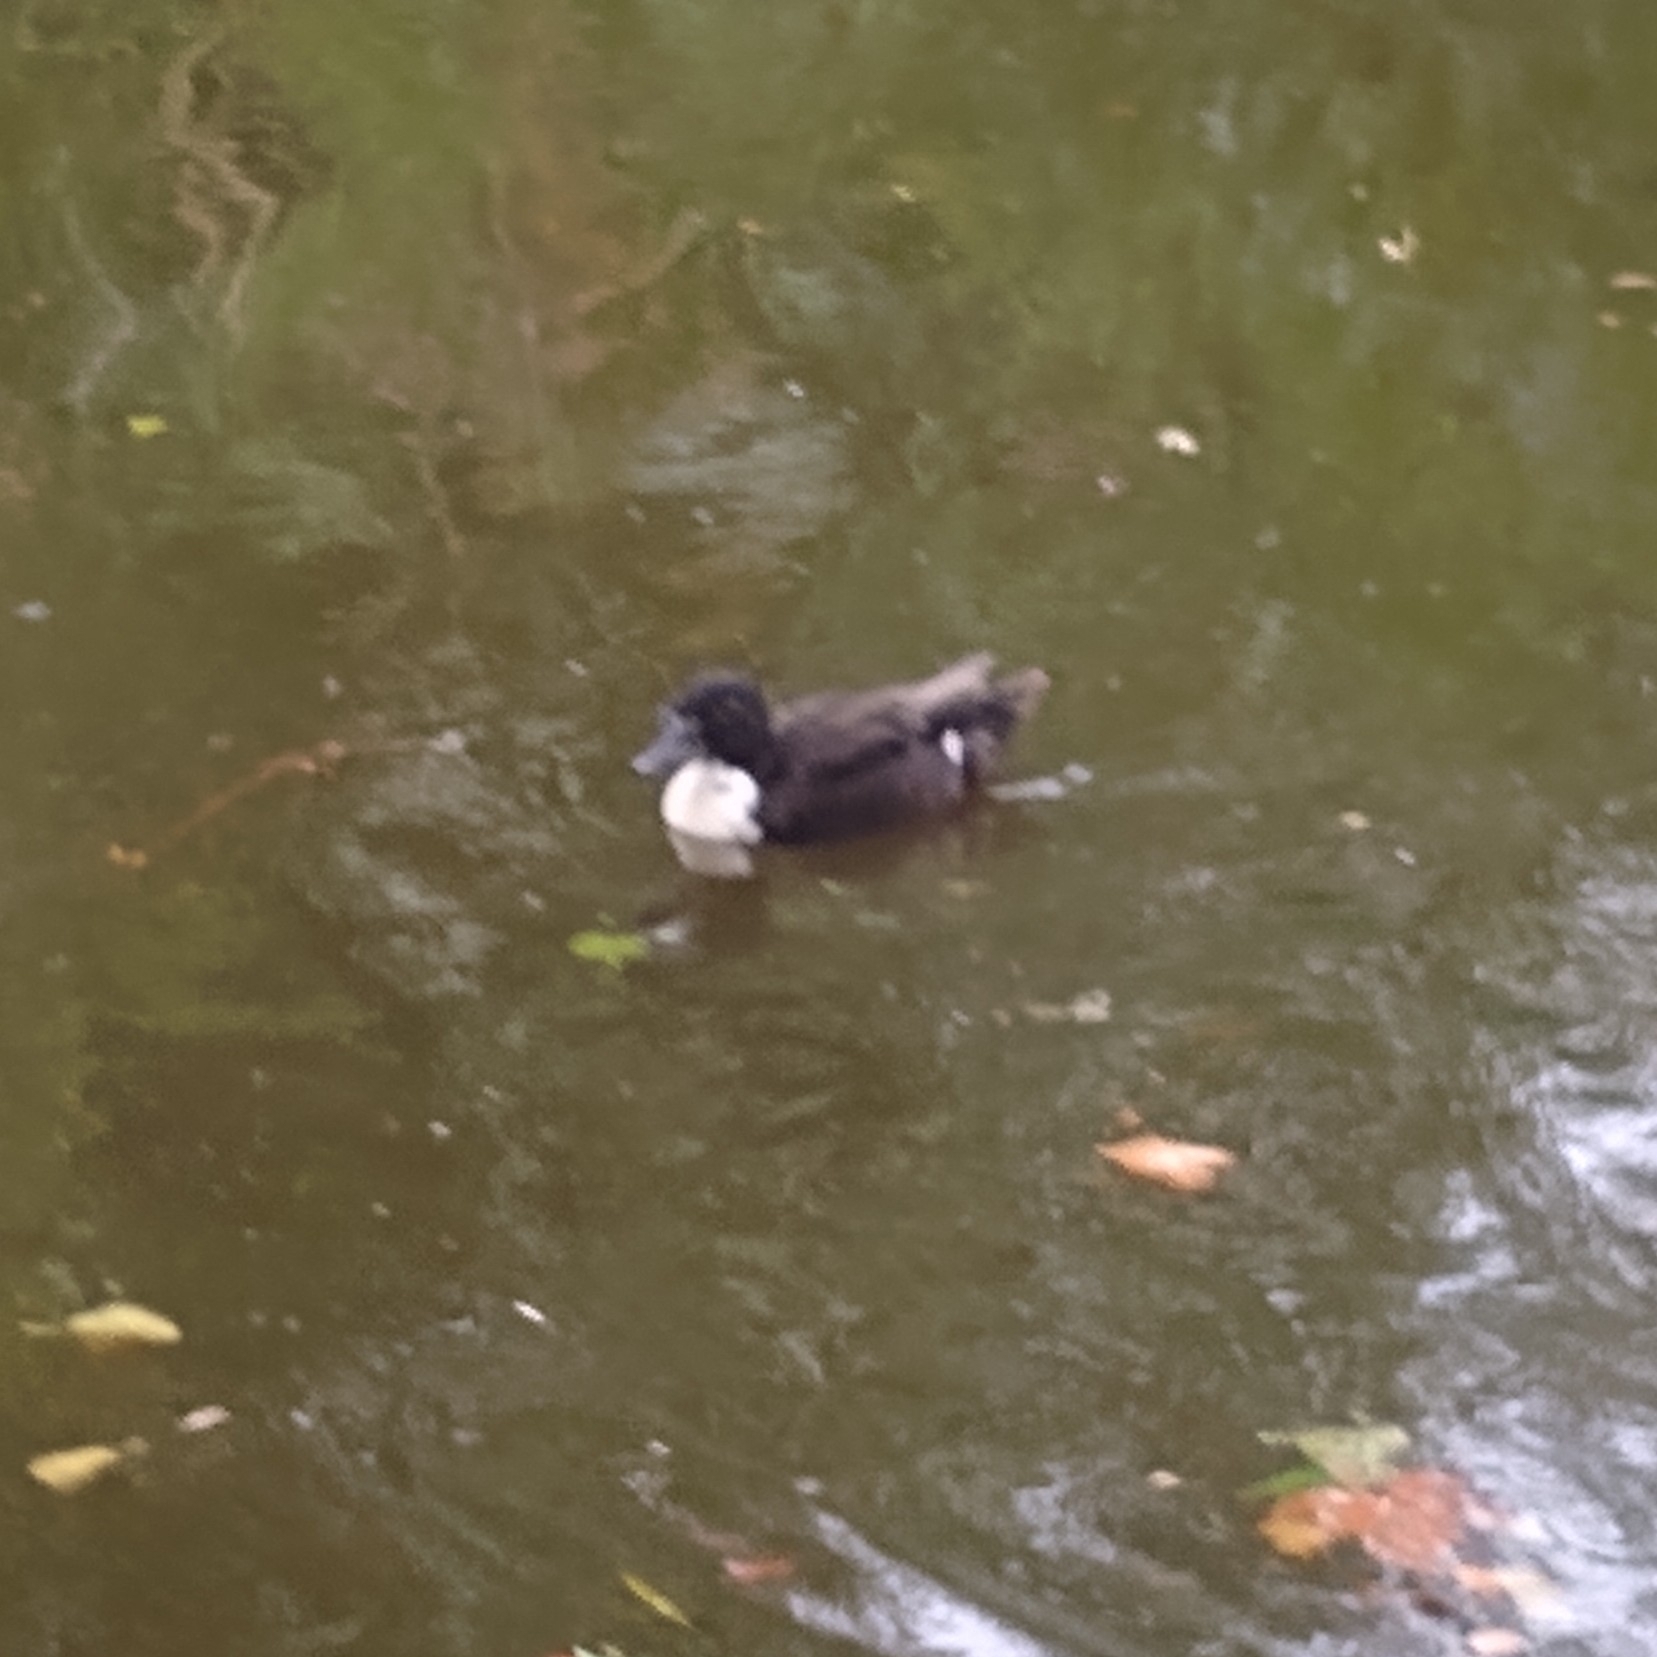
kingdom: Animalia
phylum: Chordata
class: Aves
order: Anseriformes
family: Anatidae
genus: Anas
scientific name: Anas platyrhynchos
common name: Mallard
